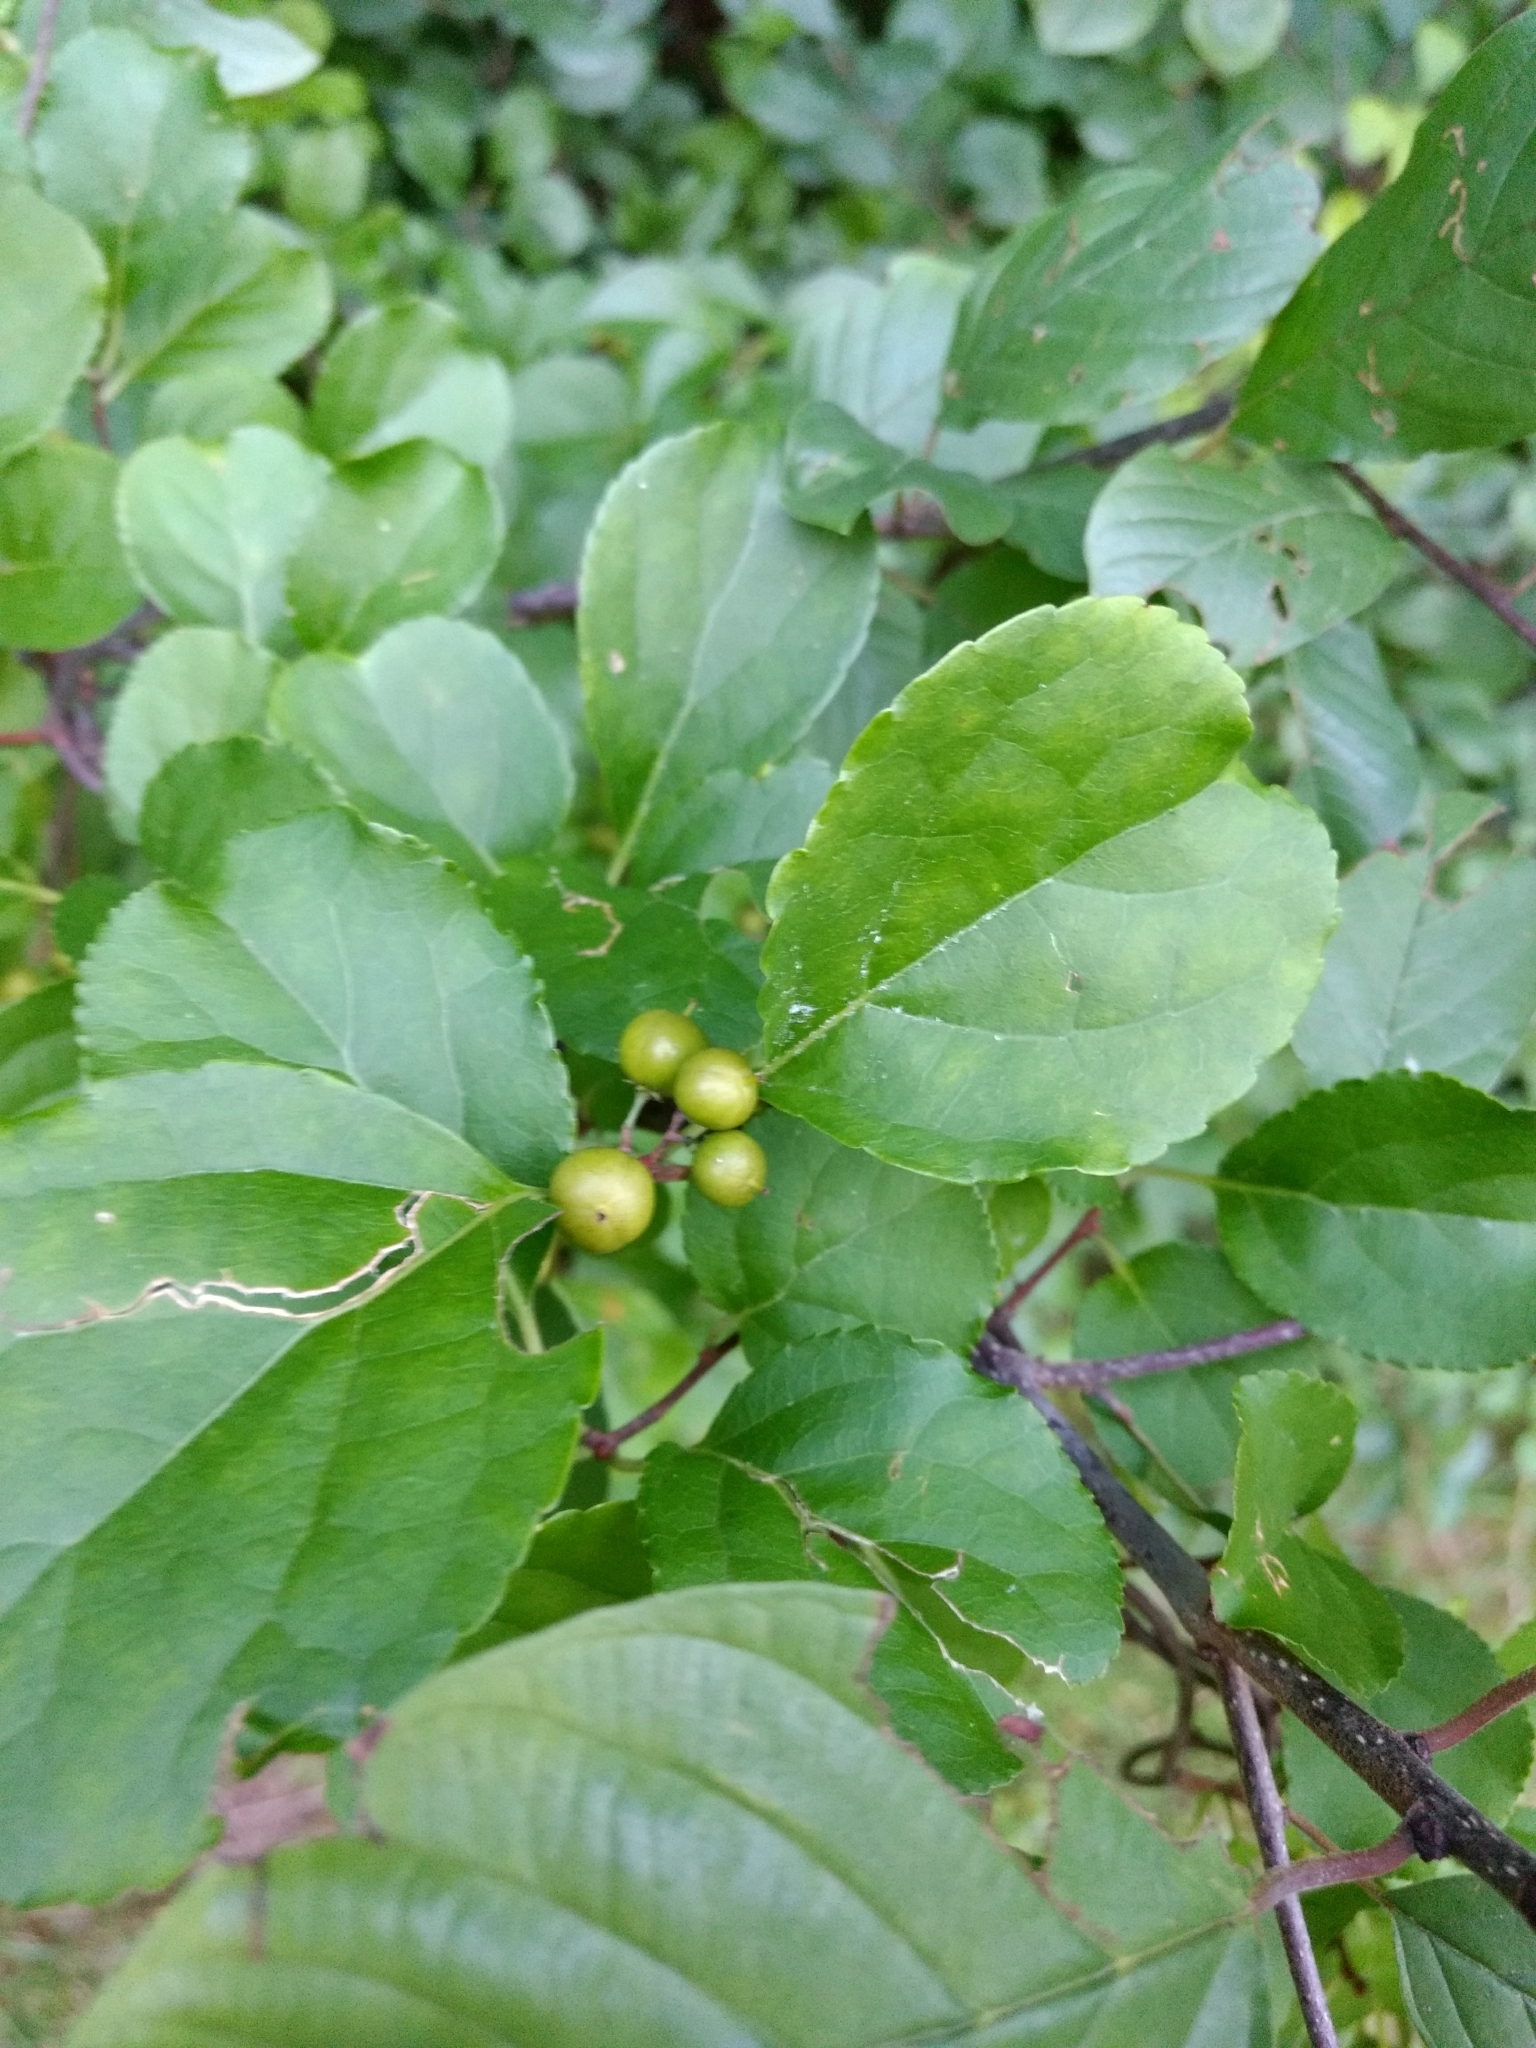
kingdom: Plantae
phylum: Tracheophyta
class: Magnoliopsida
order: Celastrales
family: Celastraceae
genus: Celastrus
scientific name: Celastrus orbiculatus
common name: Oriental bittersweet
